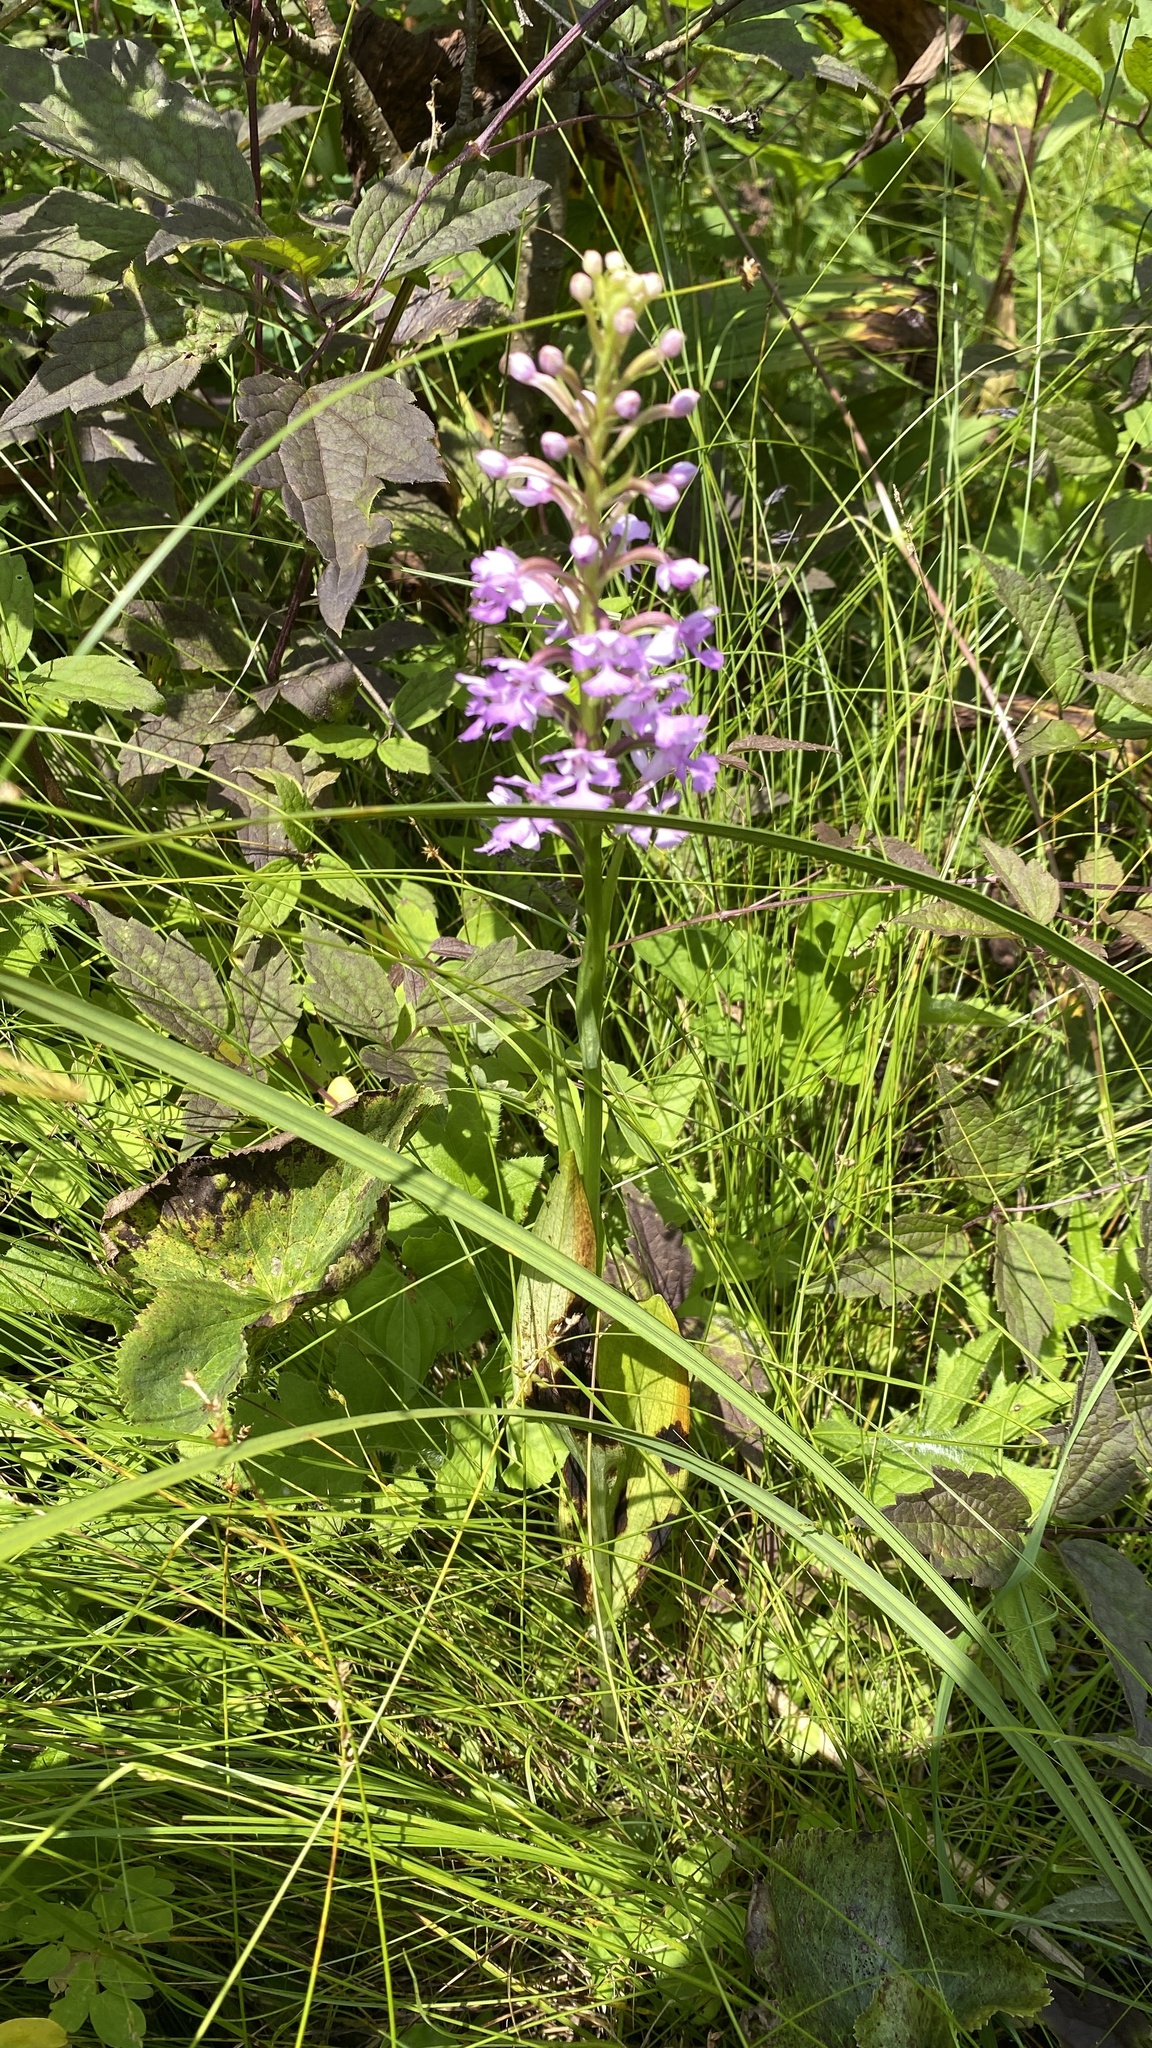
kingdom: Plantae
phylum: Tracheophyta
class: Liliopsida
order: Asparagales
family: Orchidaceae
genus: Platanthera
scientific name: Platanthera psycodes
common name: Lesser purple fringed orchid
